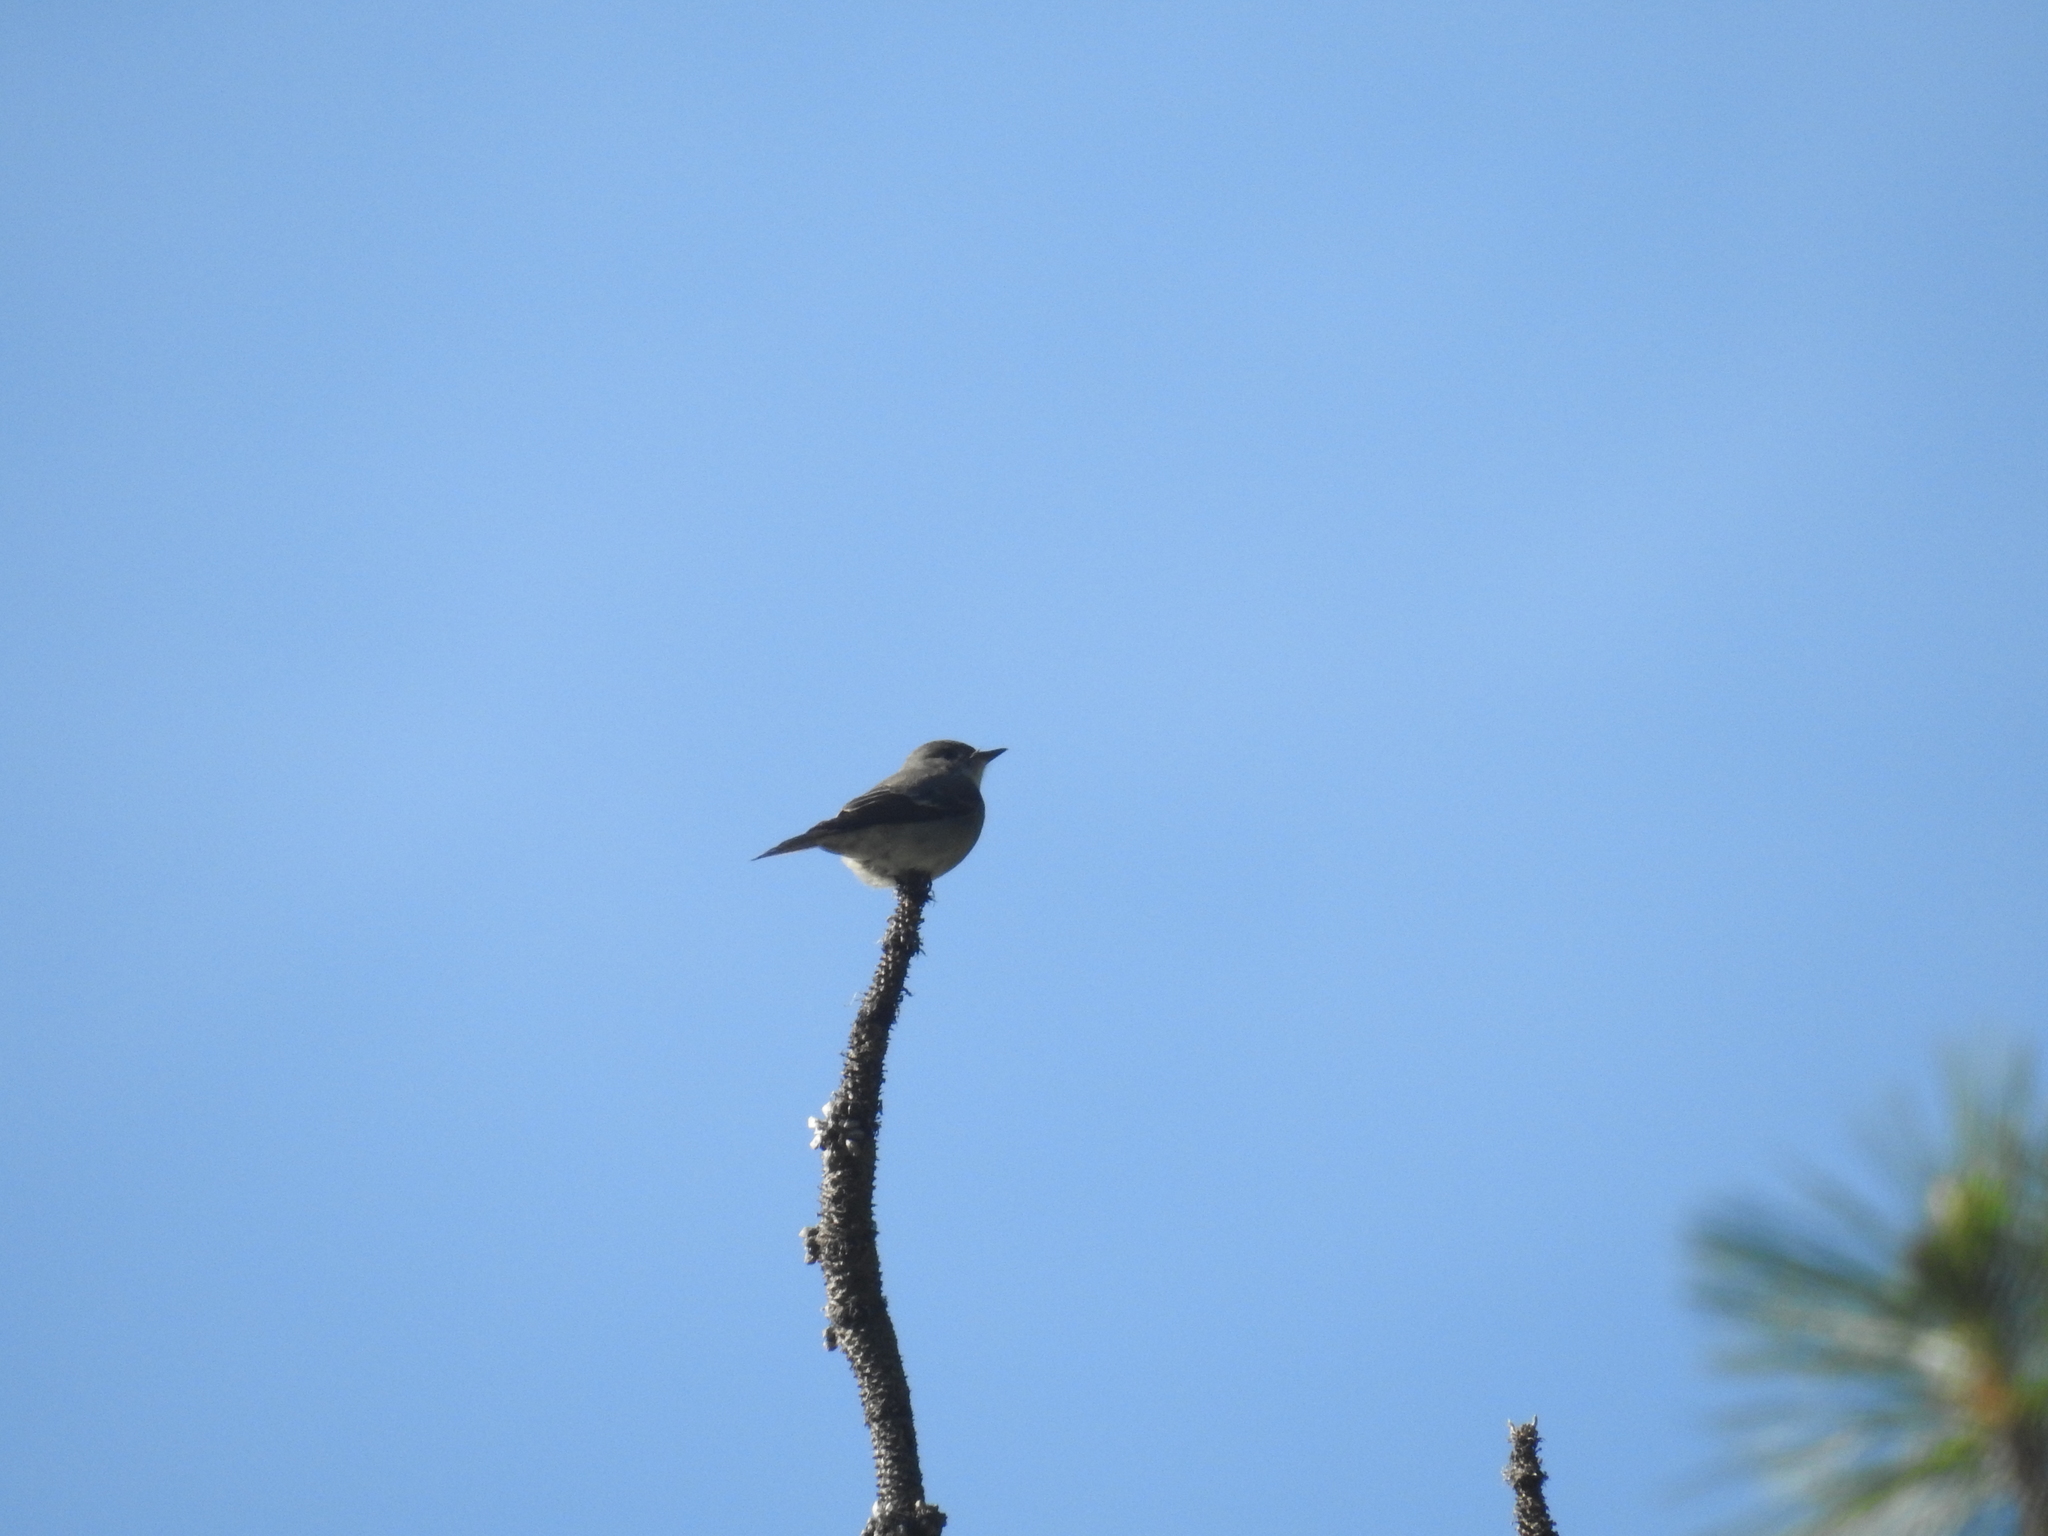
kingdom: Animalia
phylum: Chordata
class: Aves
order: Passeriformes
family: Tyrannidae
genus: Contopus
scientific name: Contopus sordidulus
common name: Western wood-pewee
